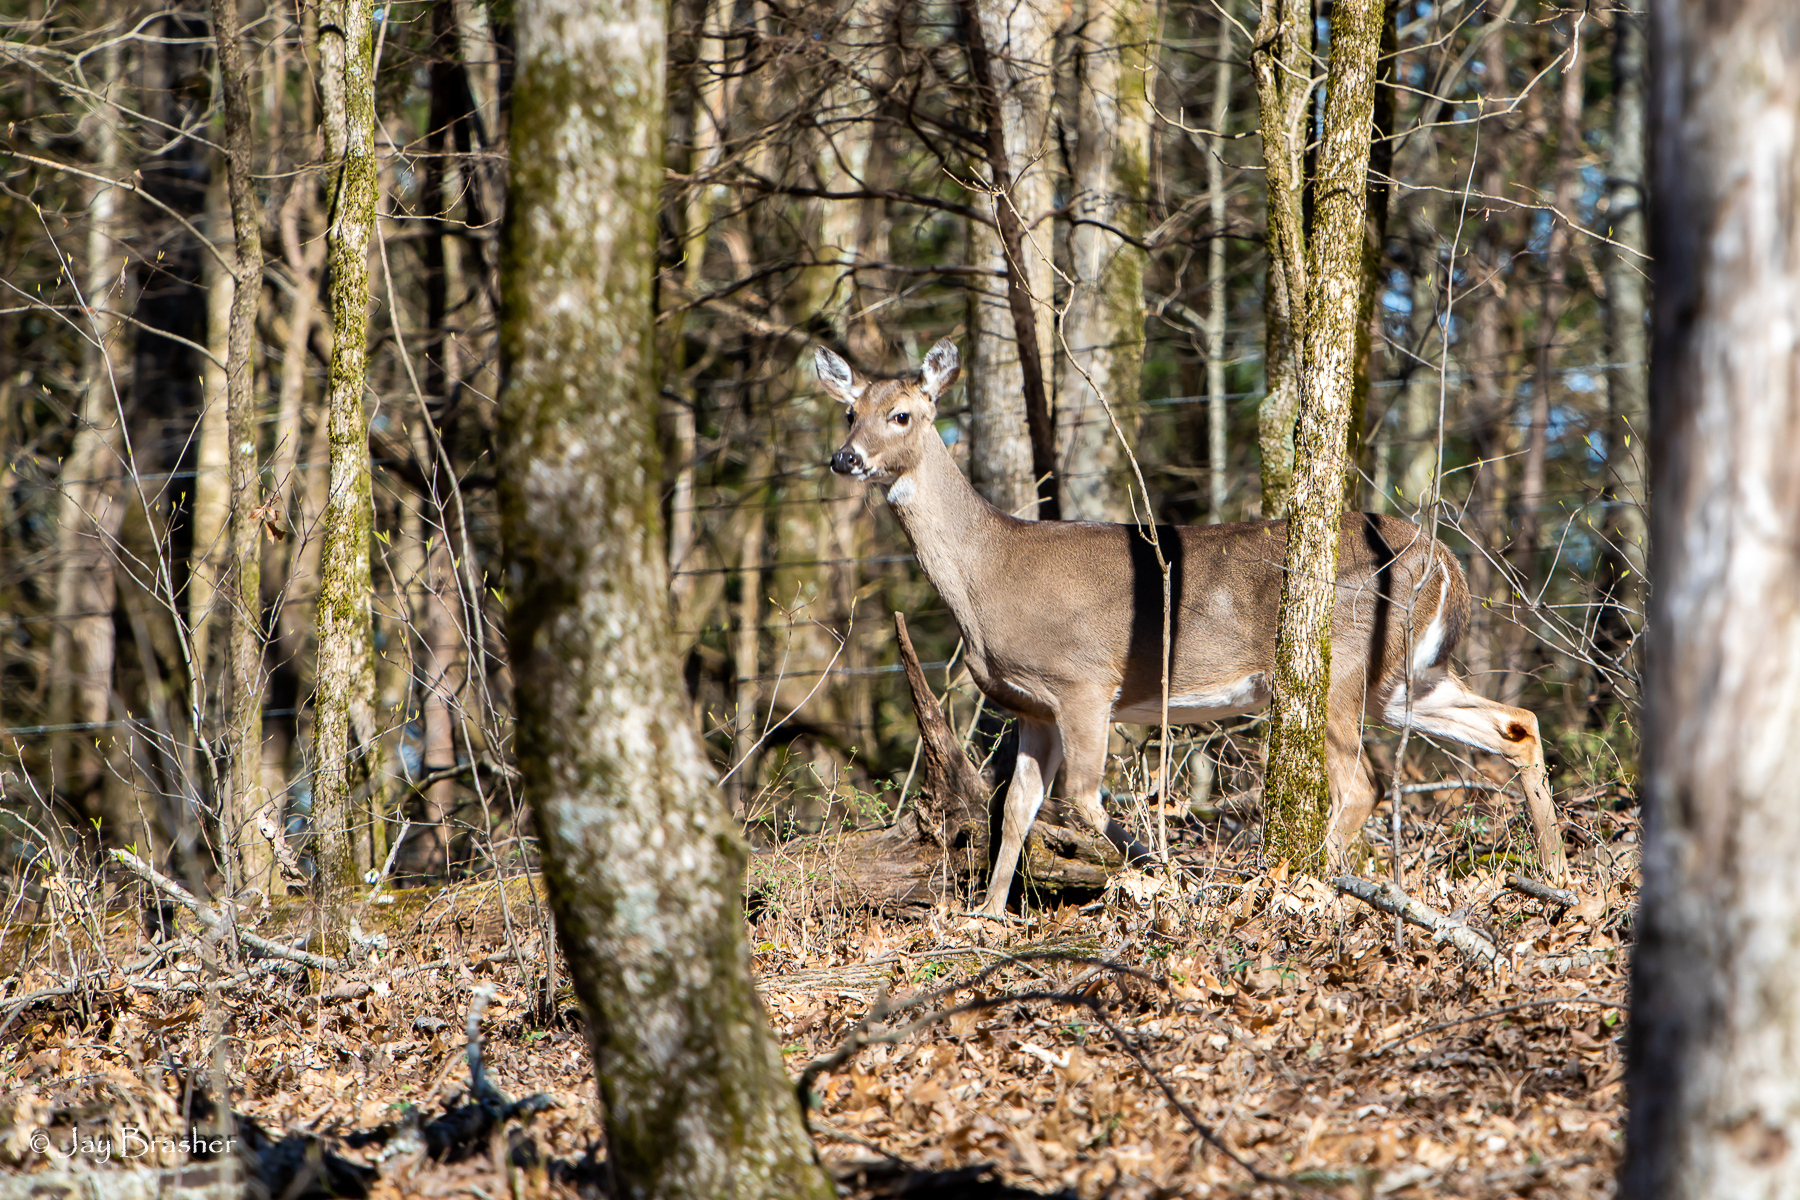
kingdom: Animalia
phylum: Chordata
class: Mammalia
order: Artiodactyla
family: Cervidae
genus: Odocoileus
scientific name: Odocoileus virginianus
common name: White-tailed deer
